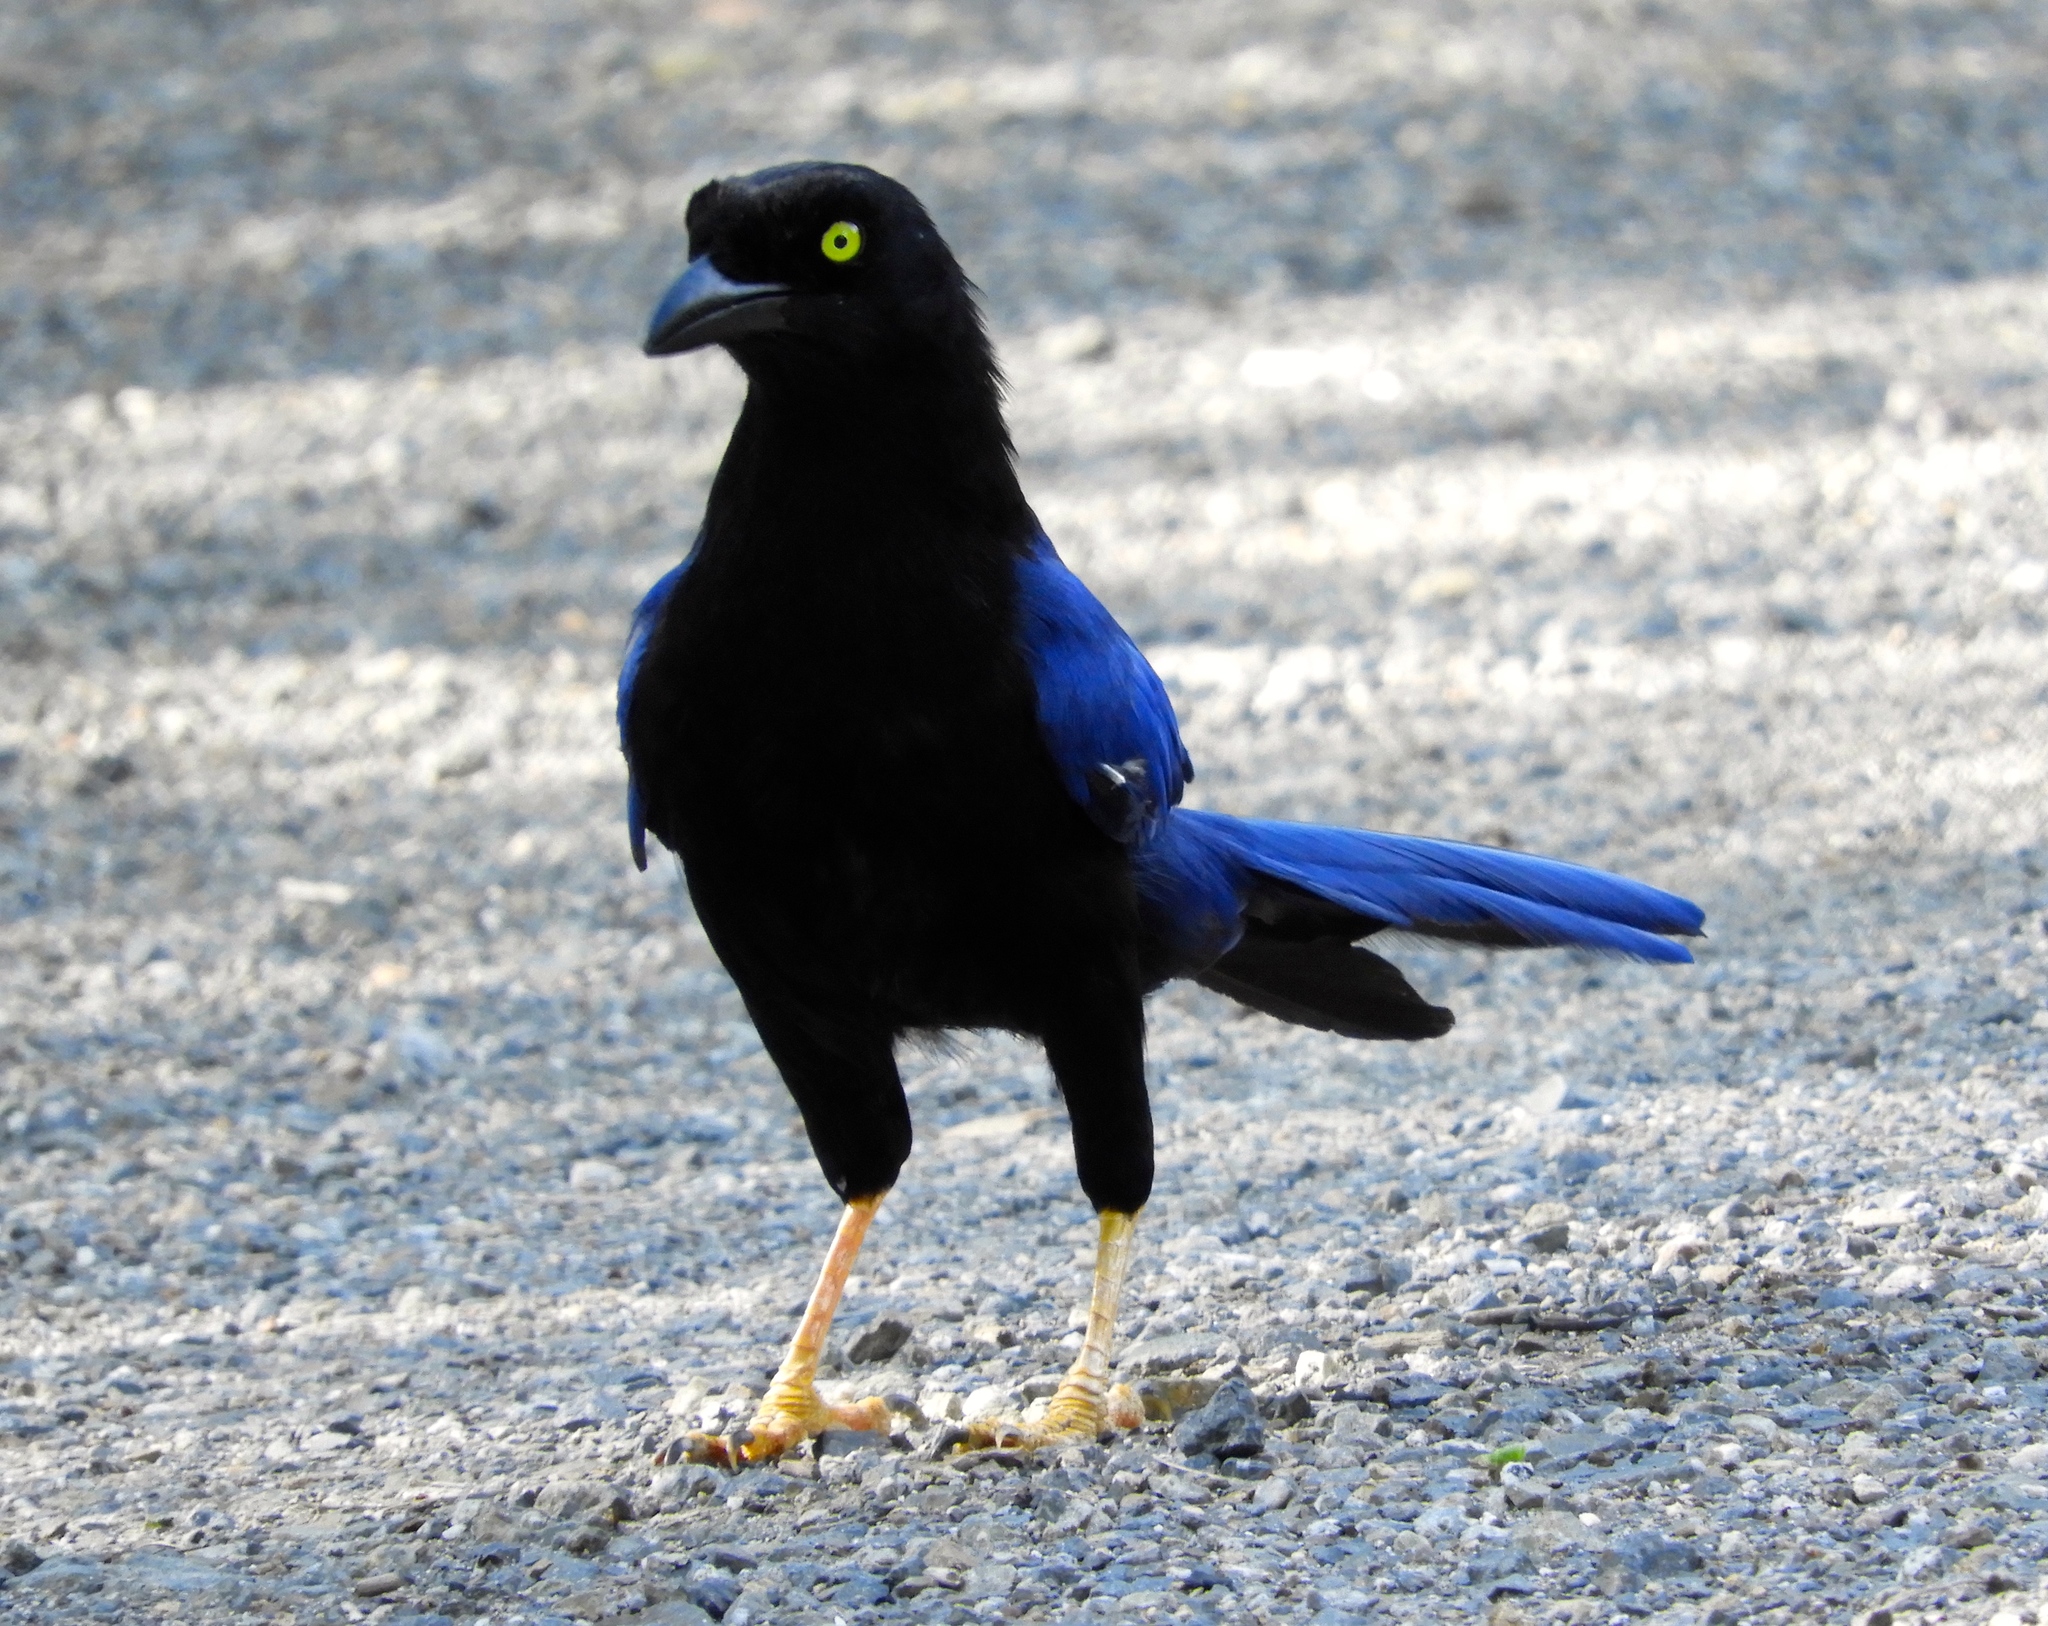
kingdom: Animalia
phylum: Chordata
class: Aves
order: Passeriformes
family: Corvidae
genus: Cyanocorax
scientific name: Cyanocorax beecheii
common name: Purplish-backed jay
